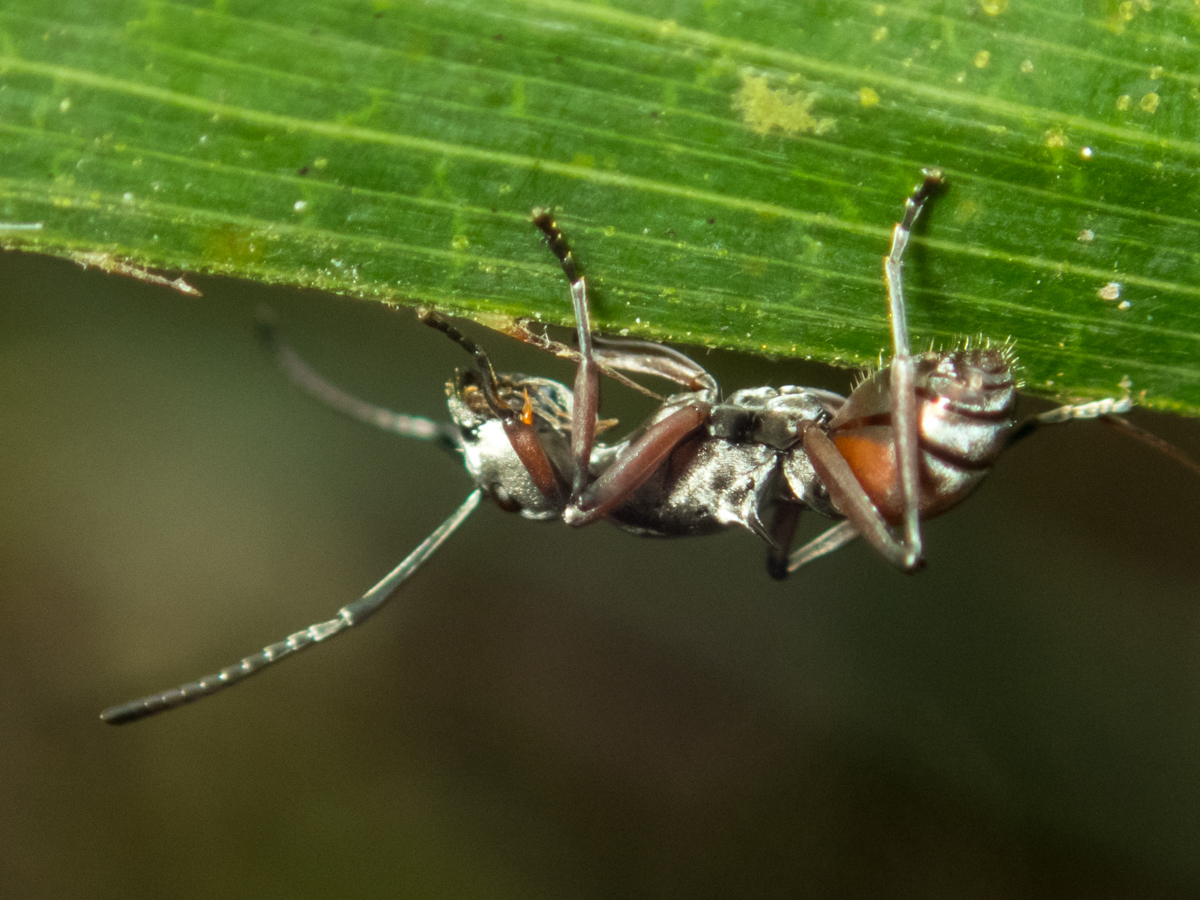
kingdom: Animalia
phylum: Arthropoda
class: Insecta
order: Hymenoptera
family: Formicidae
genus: Polyrhachis
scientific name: Polyrhachis tibialis
